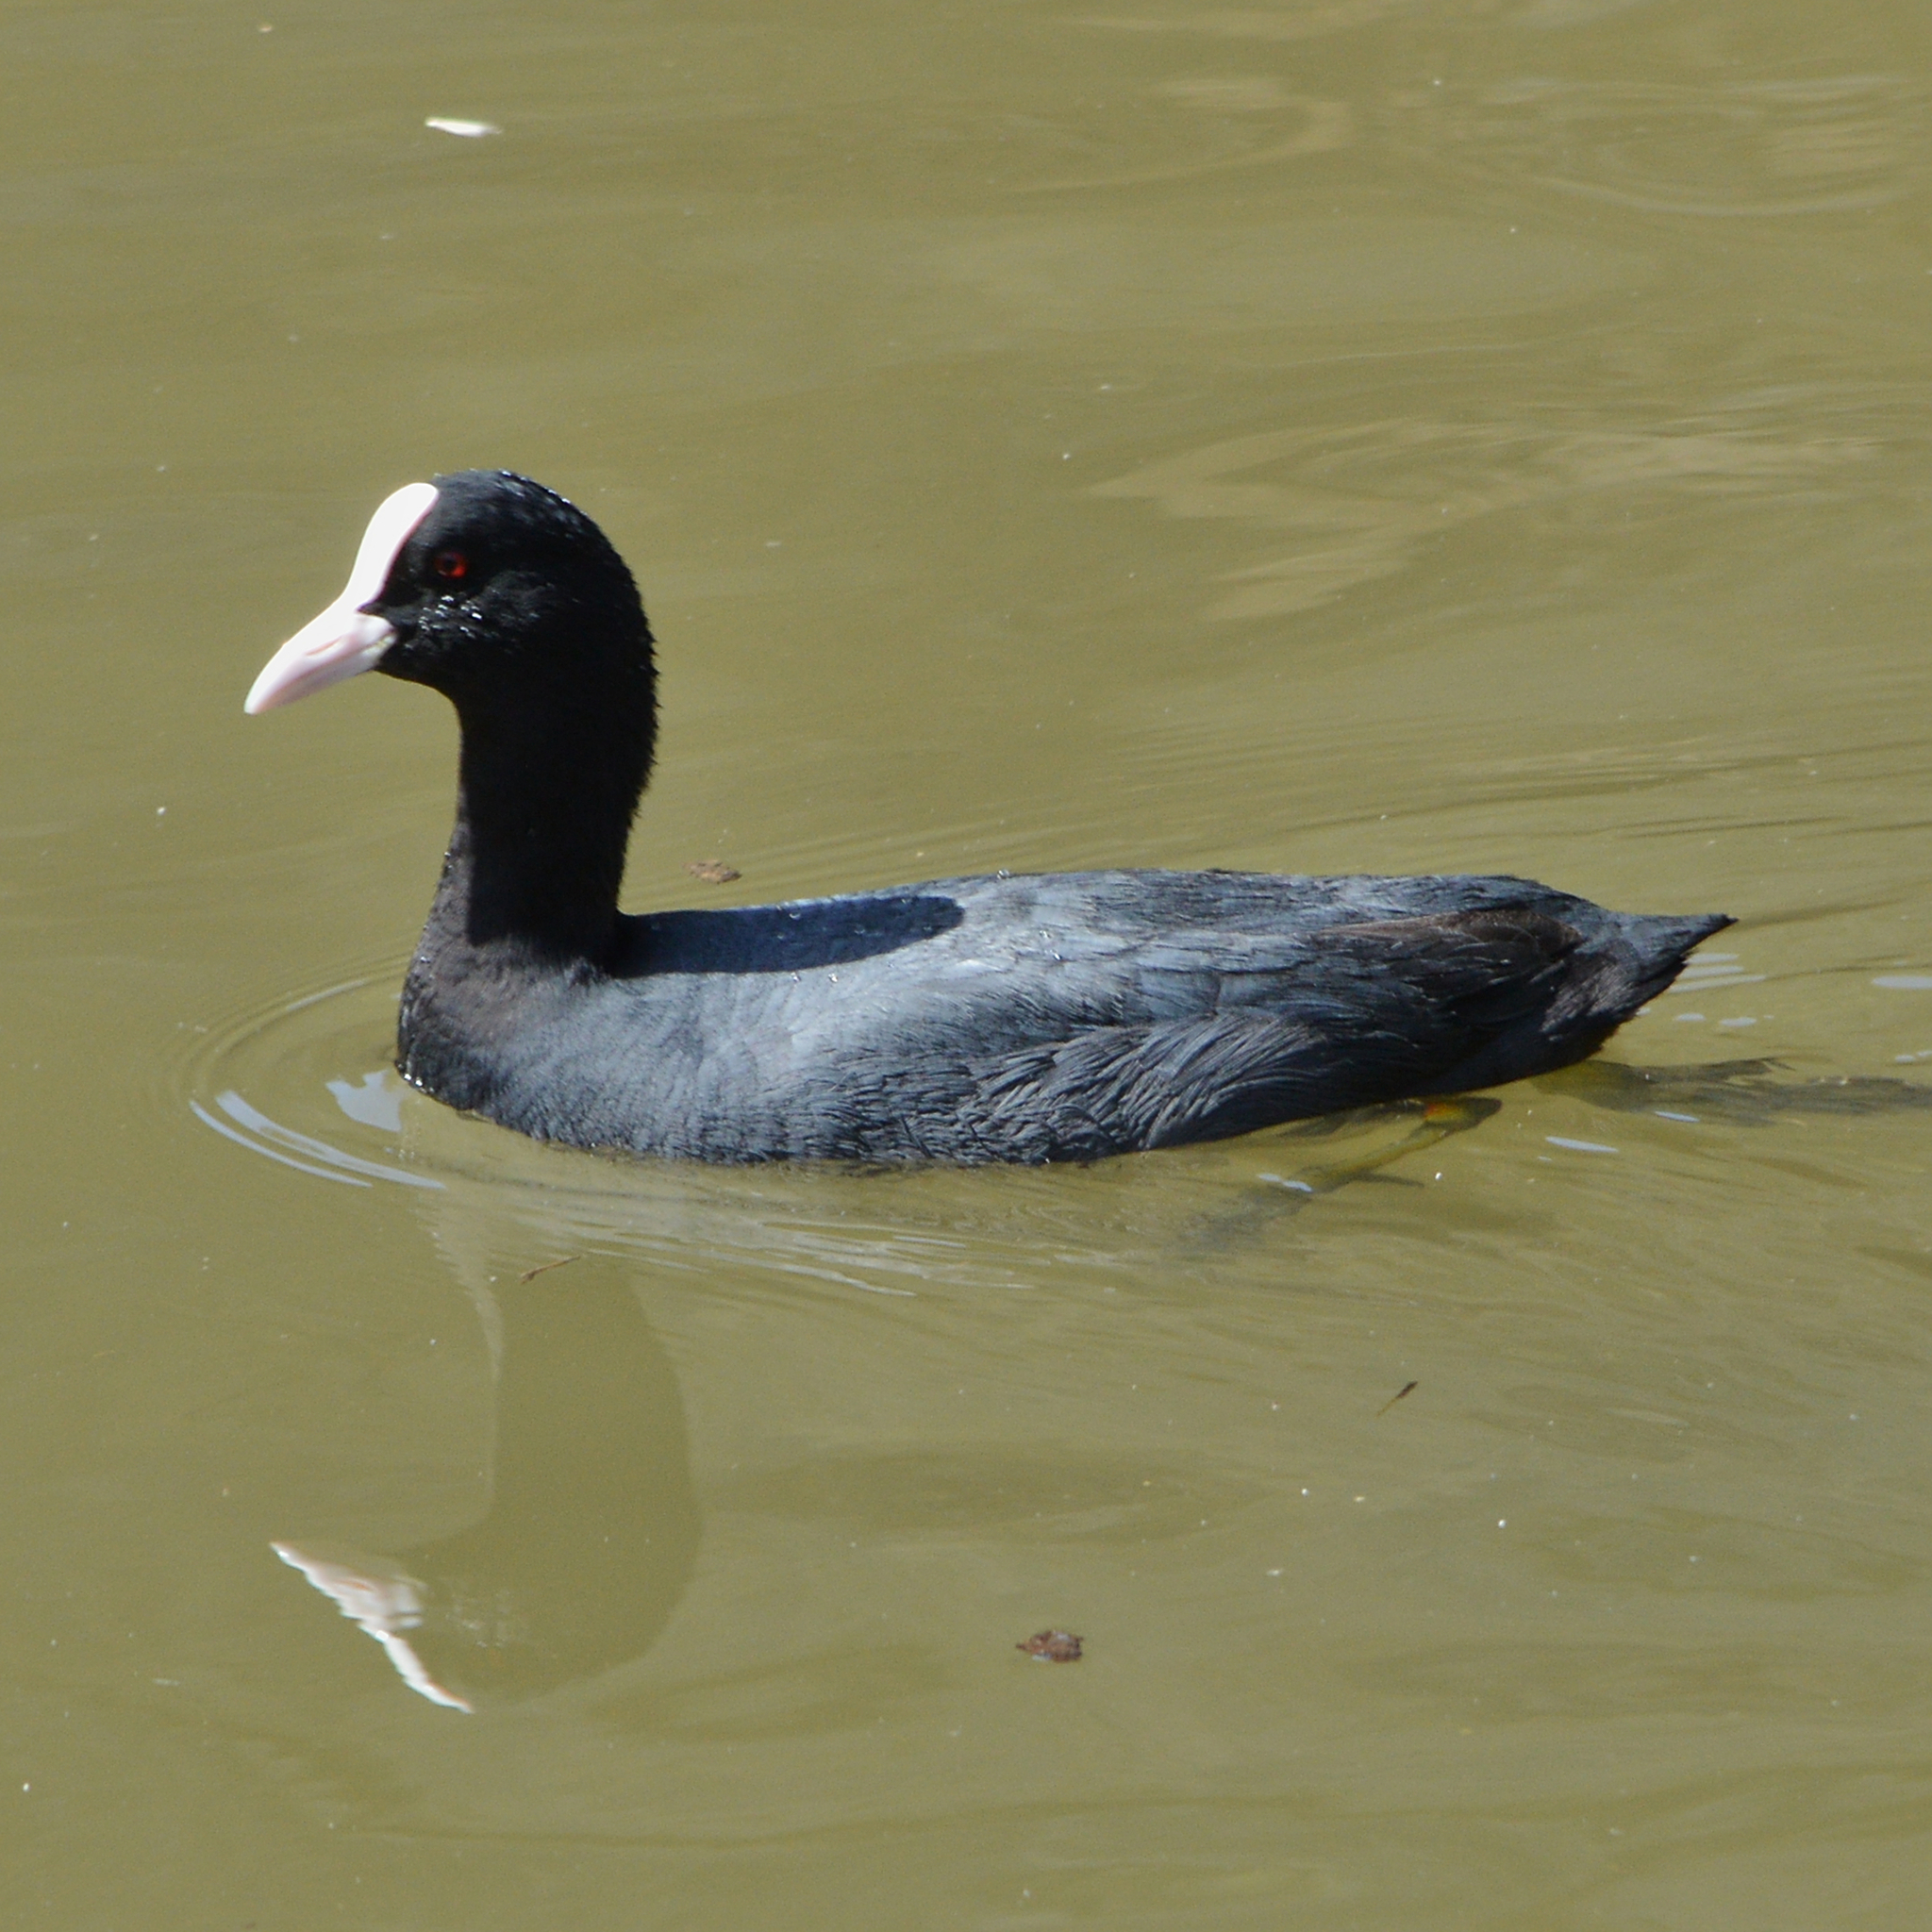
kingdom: Animalia
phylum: Chordata
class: Aves
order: Gruiformes
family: Rallidae
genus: Fulica
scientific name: Fulica atra
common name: Eurasian coot
